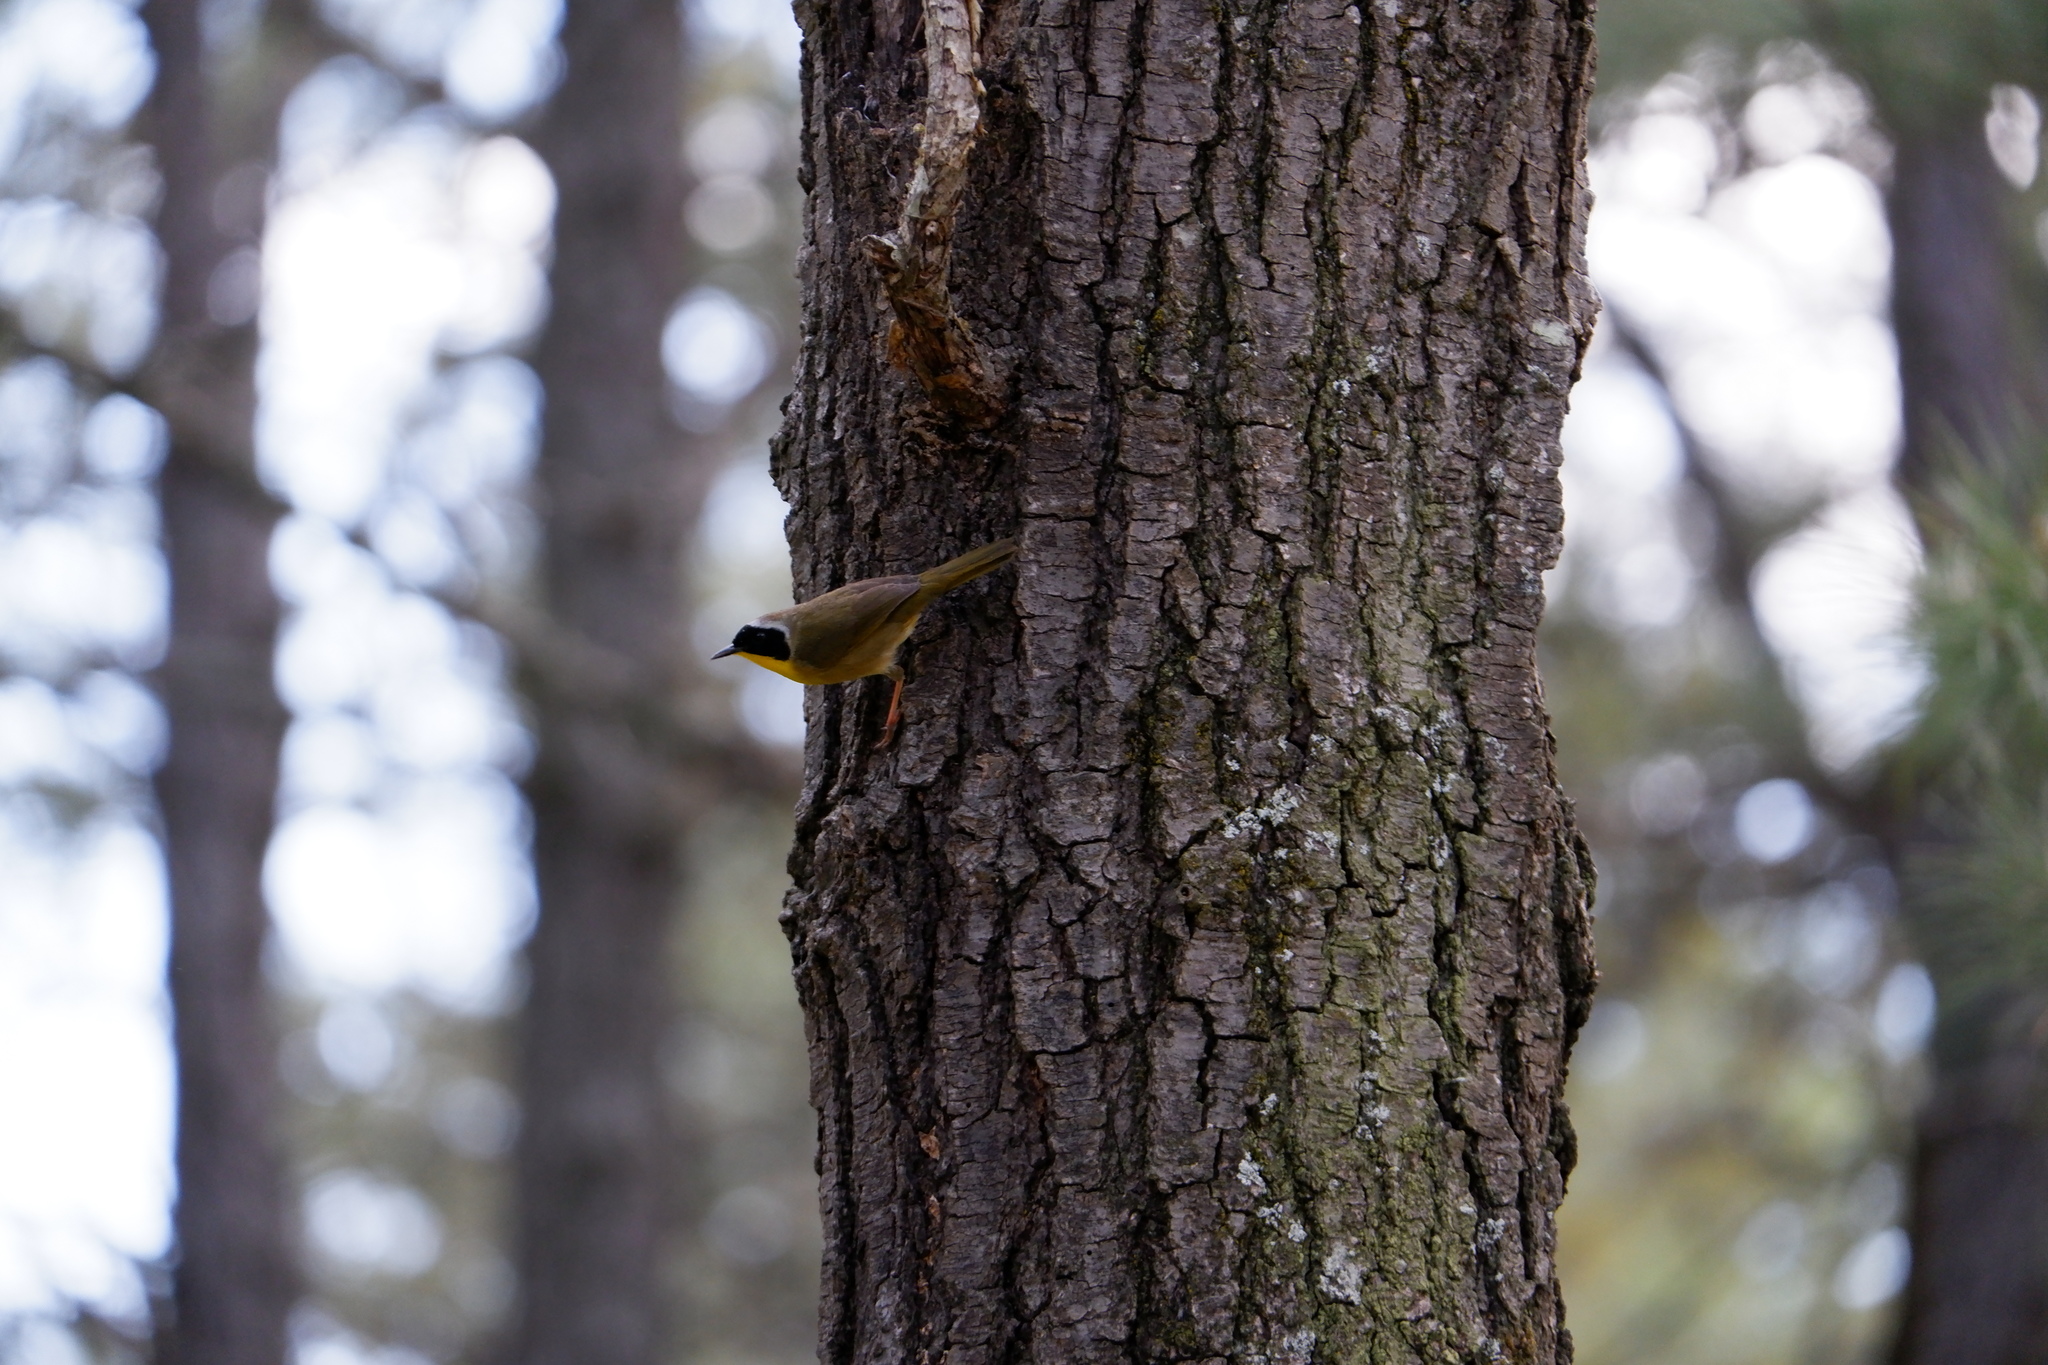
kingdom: Animalia
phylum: Chordata
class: Aves
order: Passeriformes
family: Parulidae
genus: Geothlypis
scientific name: Geothlypis trichas
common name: Common yellowthroat
